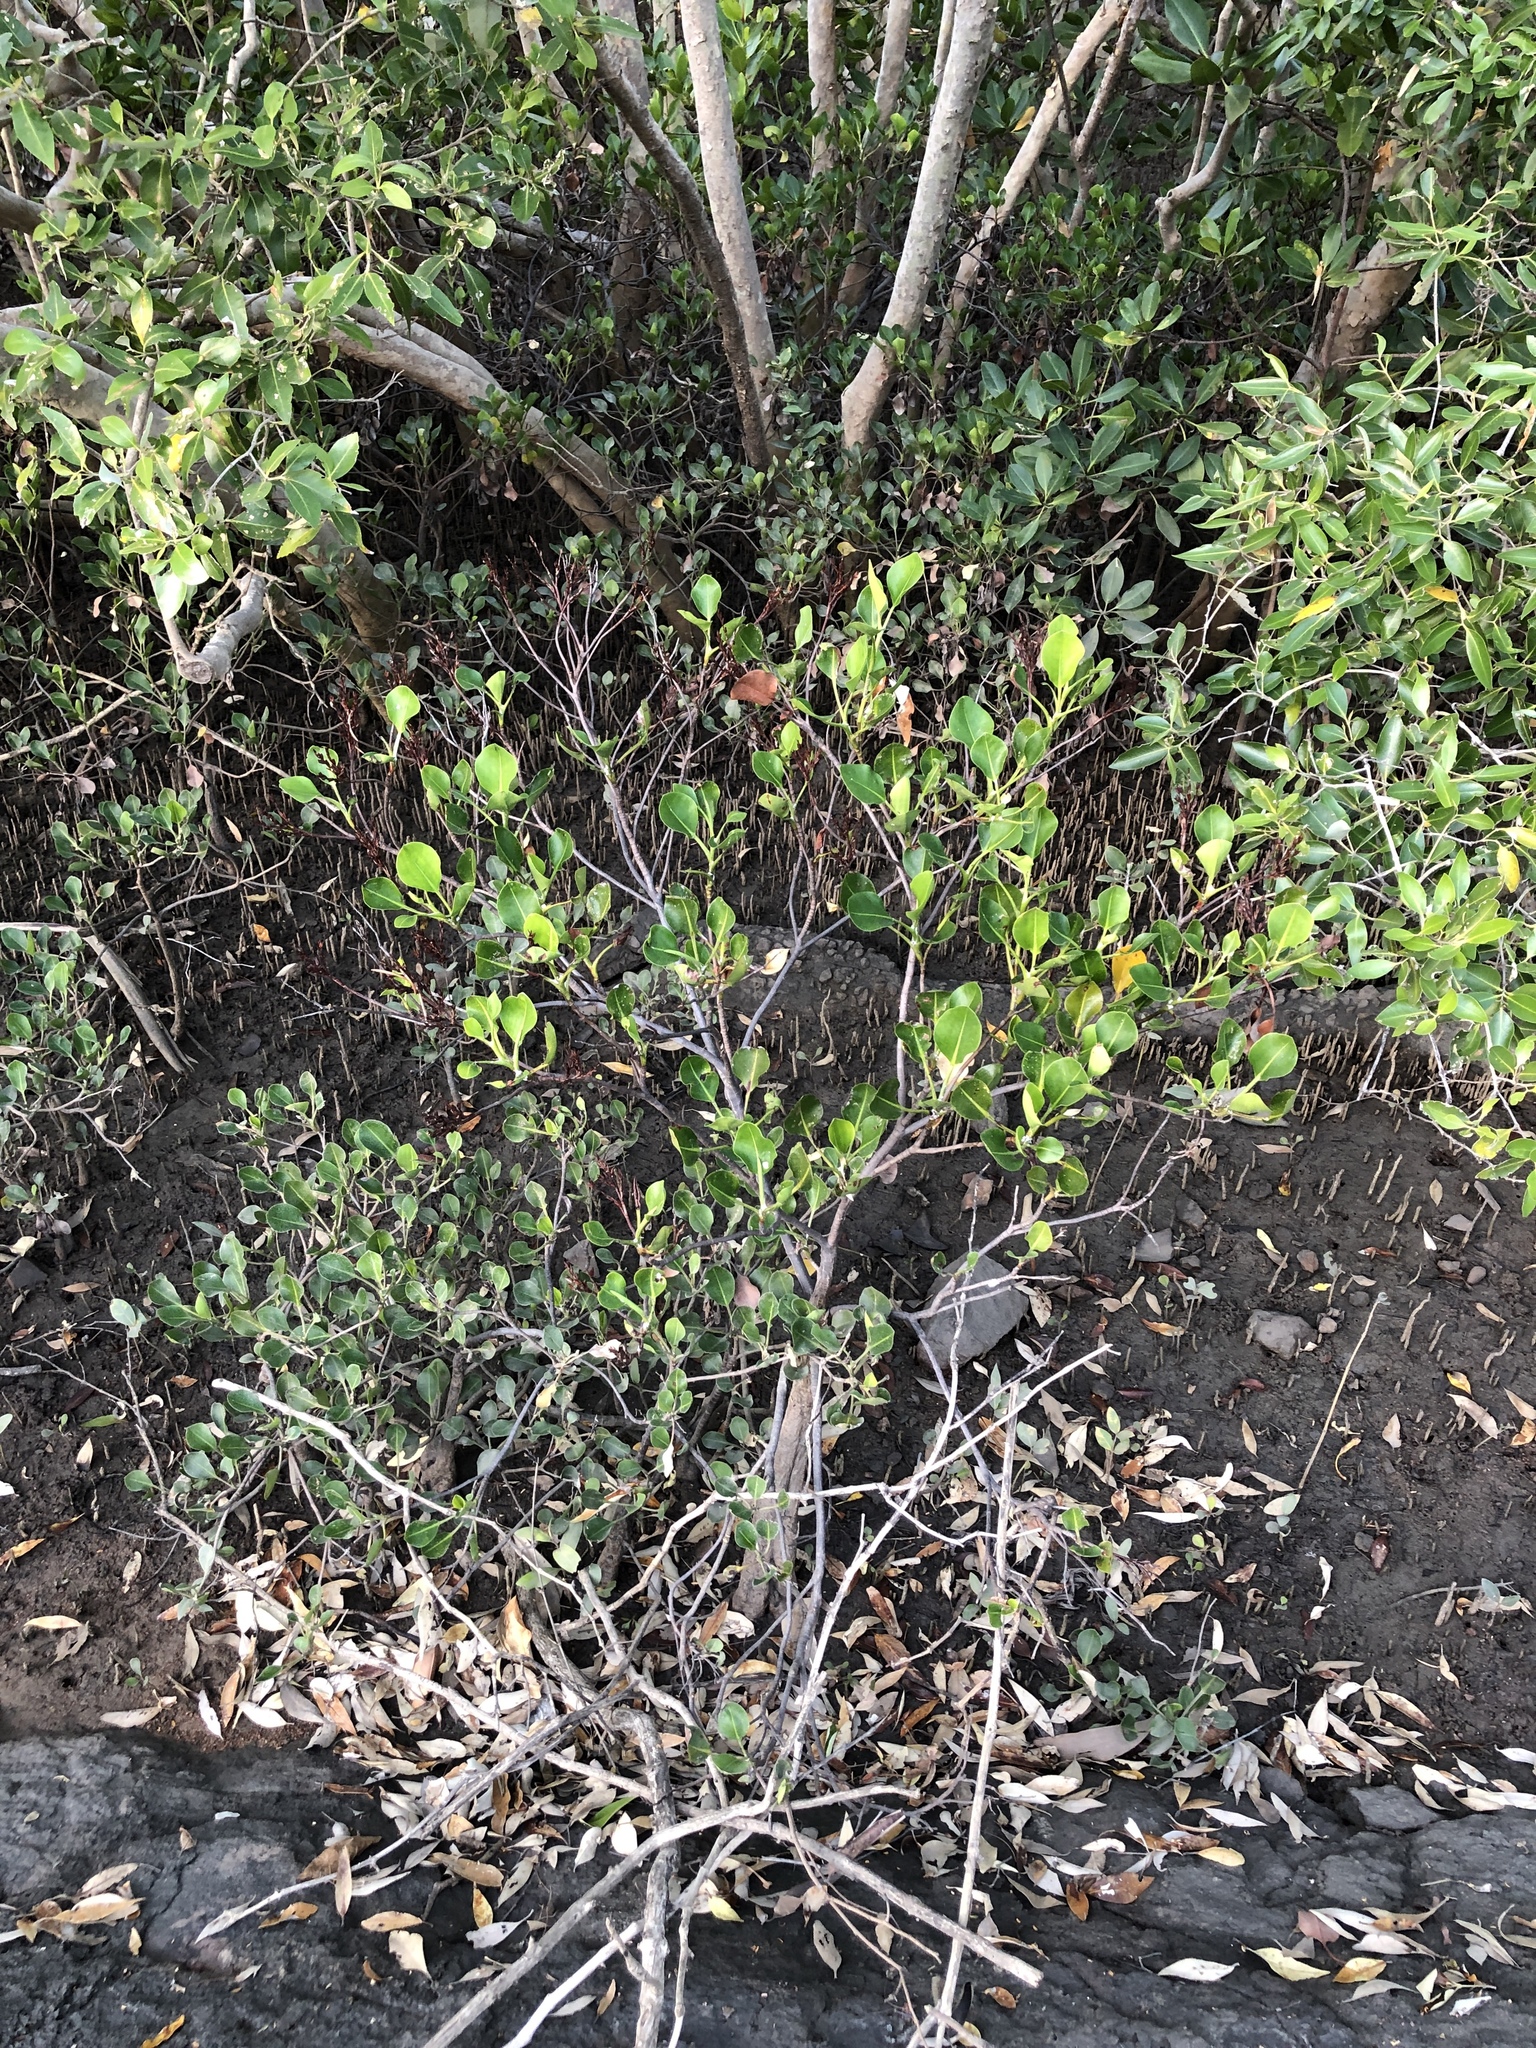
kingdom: Plantae
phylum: Tracheophyta
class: Magnoliopsida
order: Caryophyllales
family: Plumbaginaceae
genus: Aegialitis
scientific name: Aegialitis annulata
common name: Club mangrove
